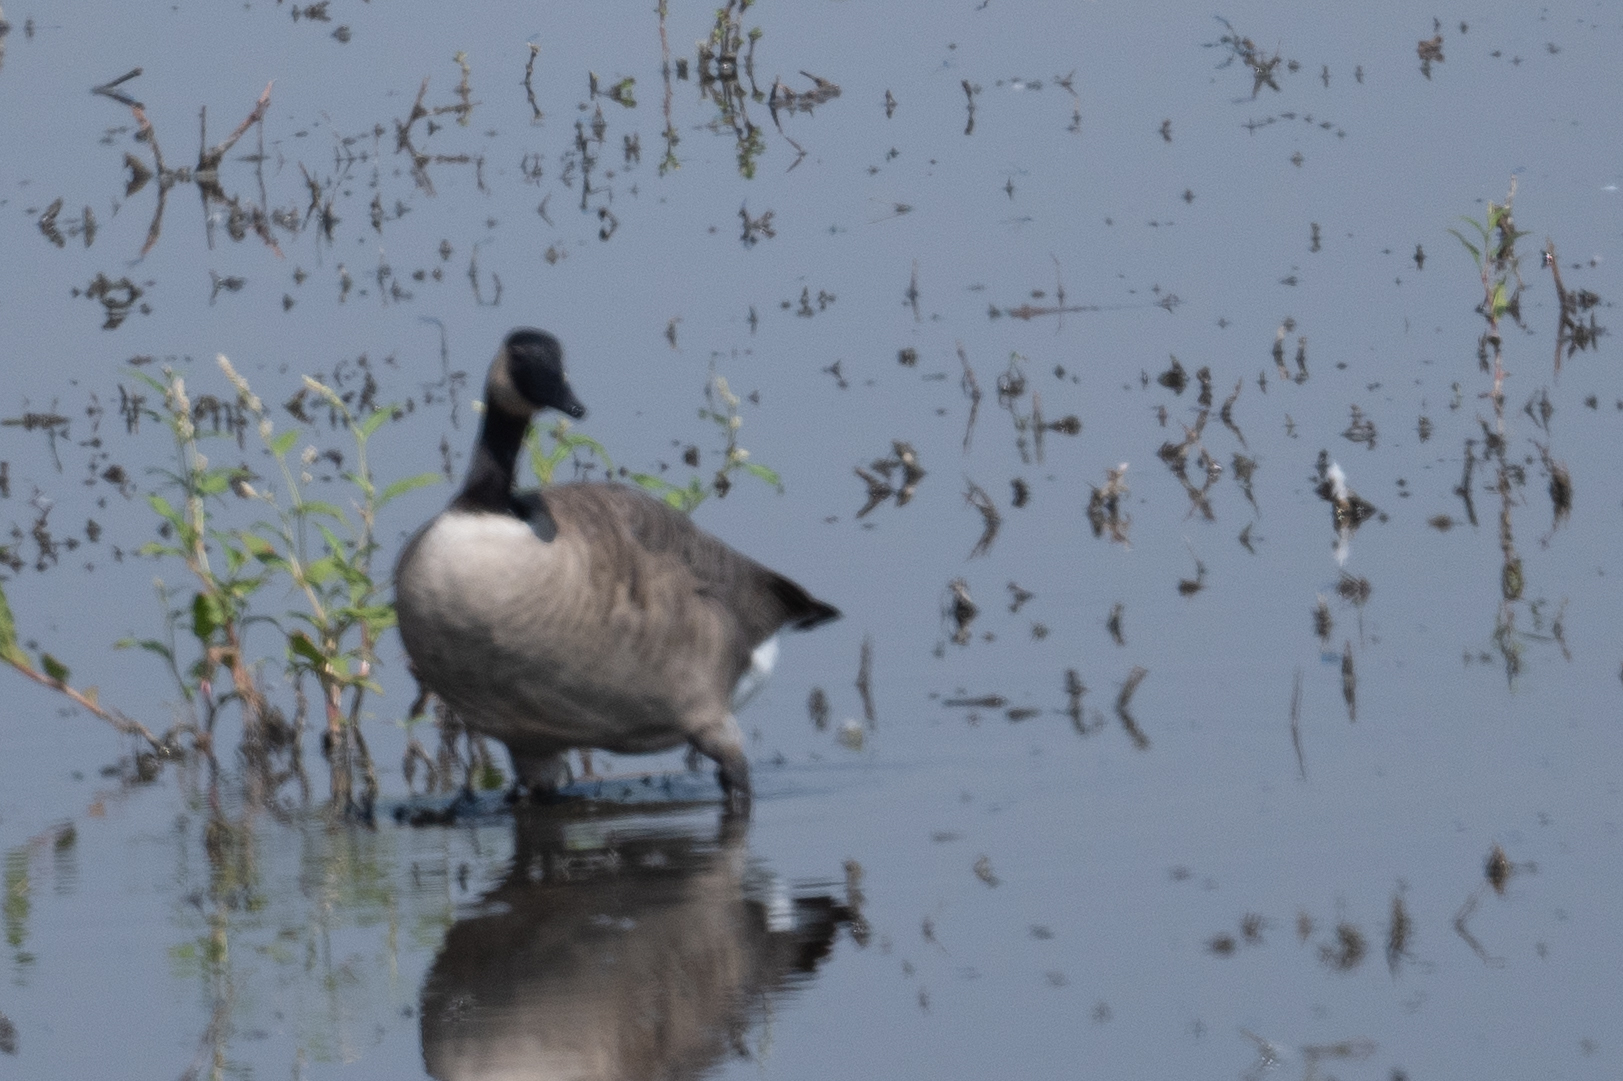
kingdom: Animalia
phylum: Chordata
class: Aves
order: Anseriformes
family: Anatidae
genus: Branta
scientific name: Branta canadensis
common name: Canada goose
